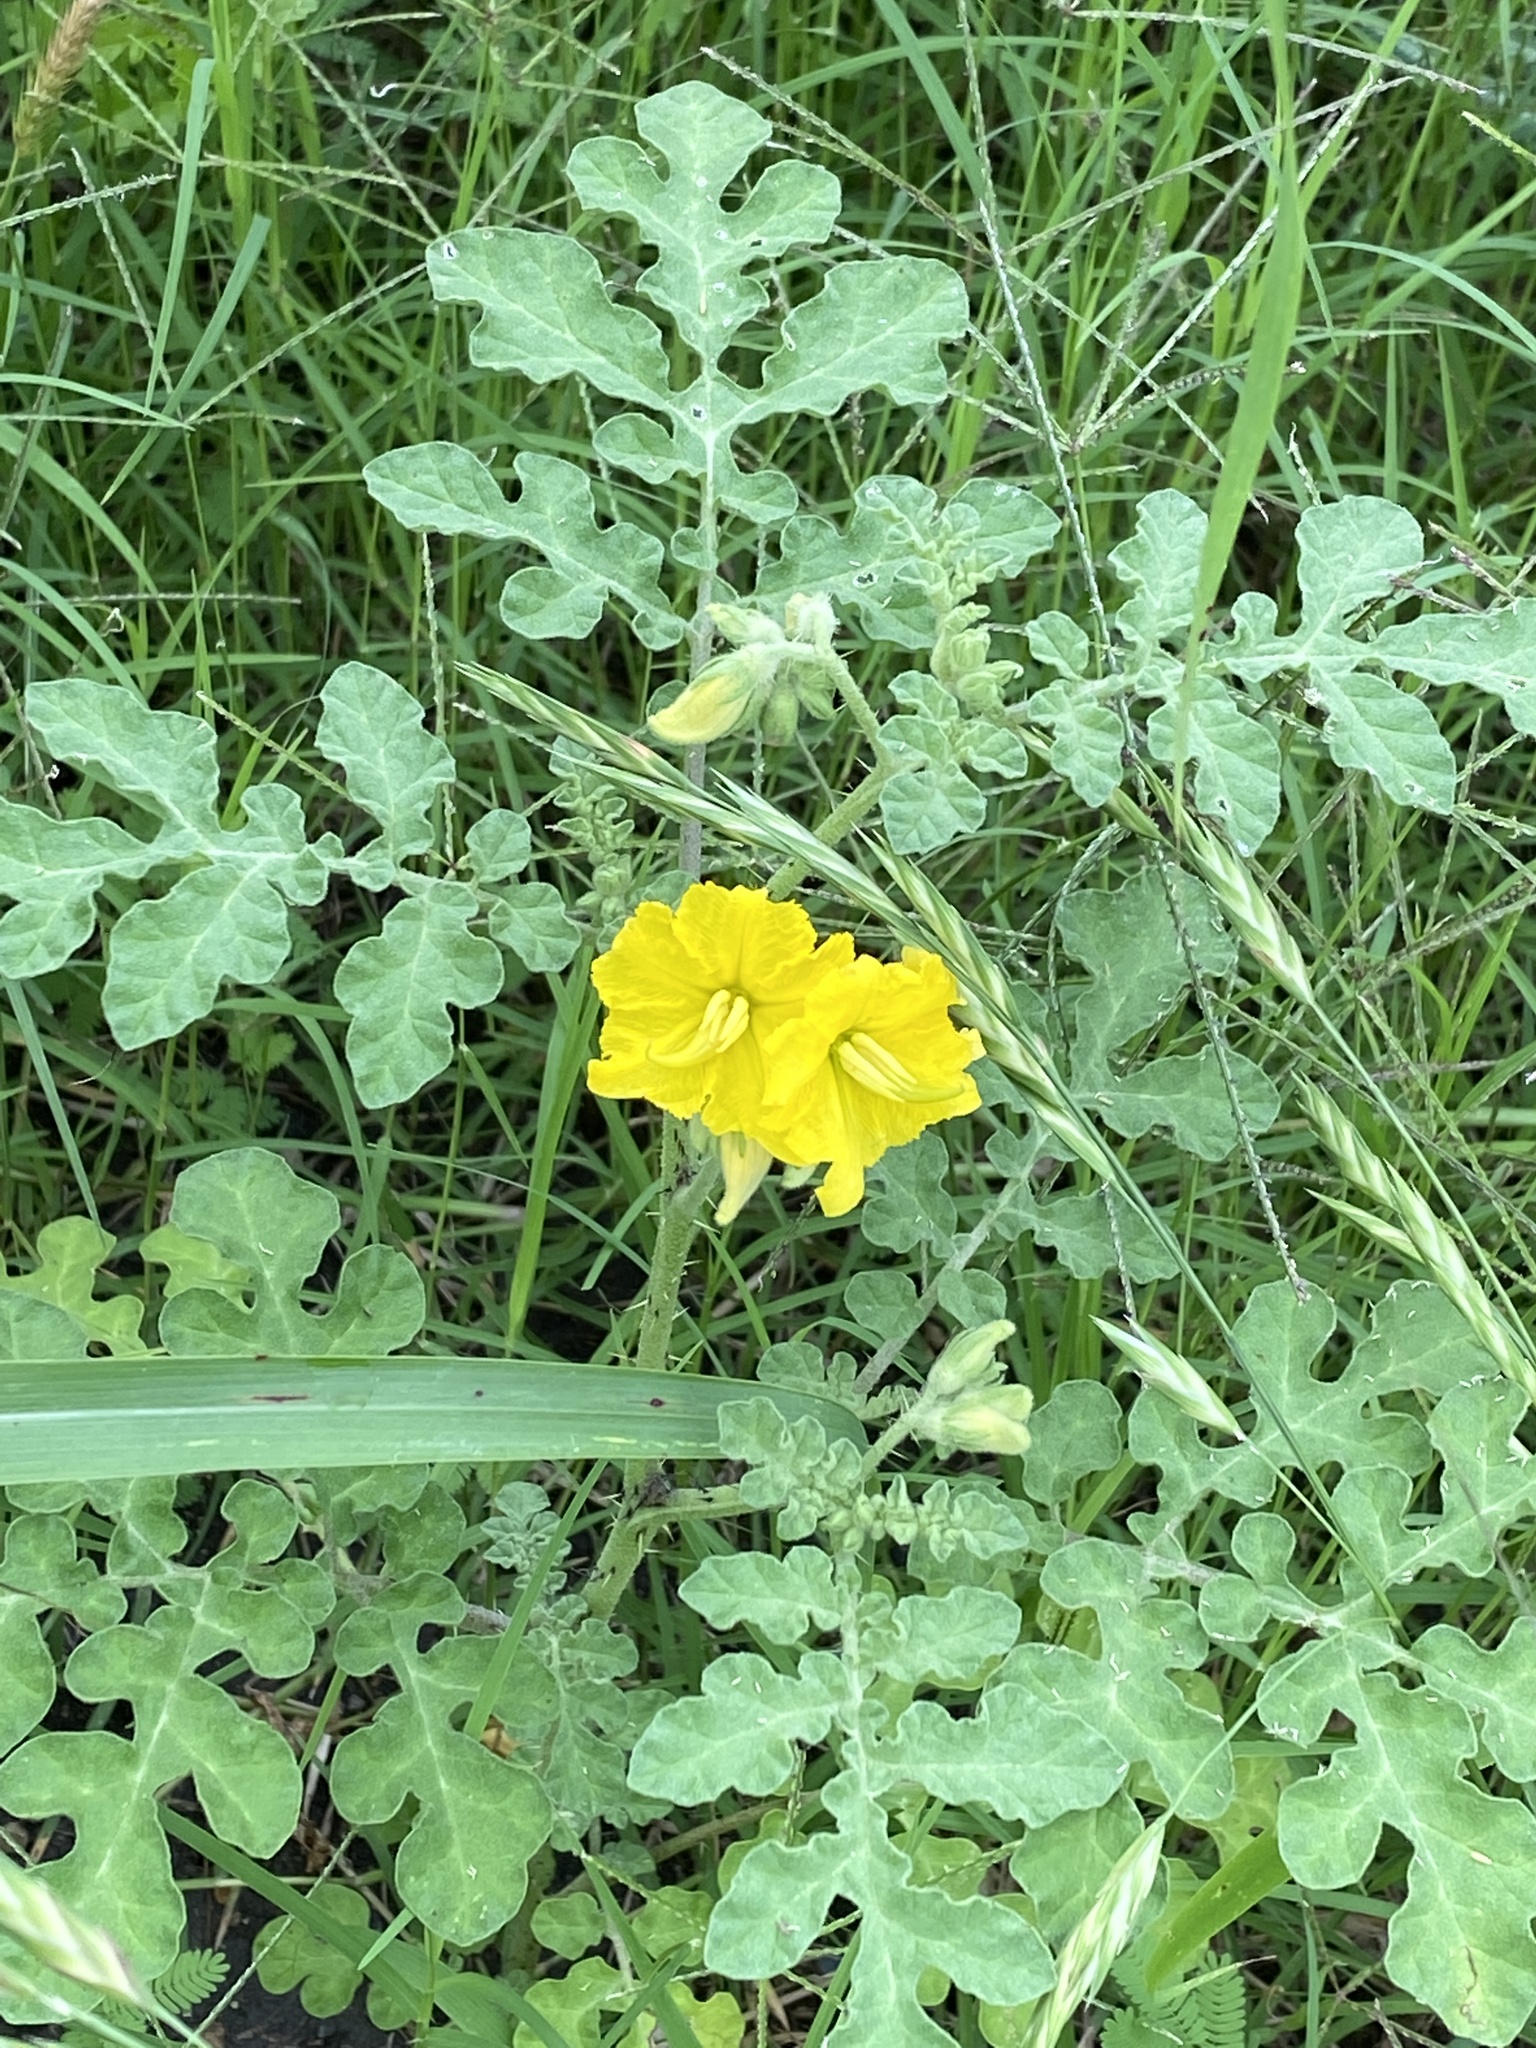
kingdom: Plantae
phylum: Tracheophyta
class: Magnoliopsida
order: Solanales
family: Solanaceae
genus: Solanum
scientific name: Solanum angustifolium
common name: Buffalobur nightshade
